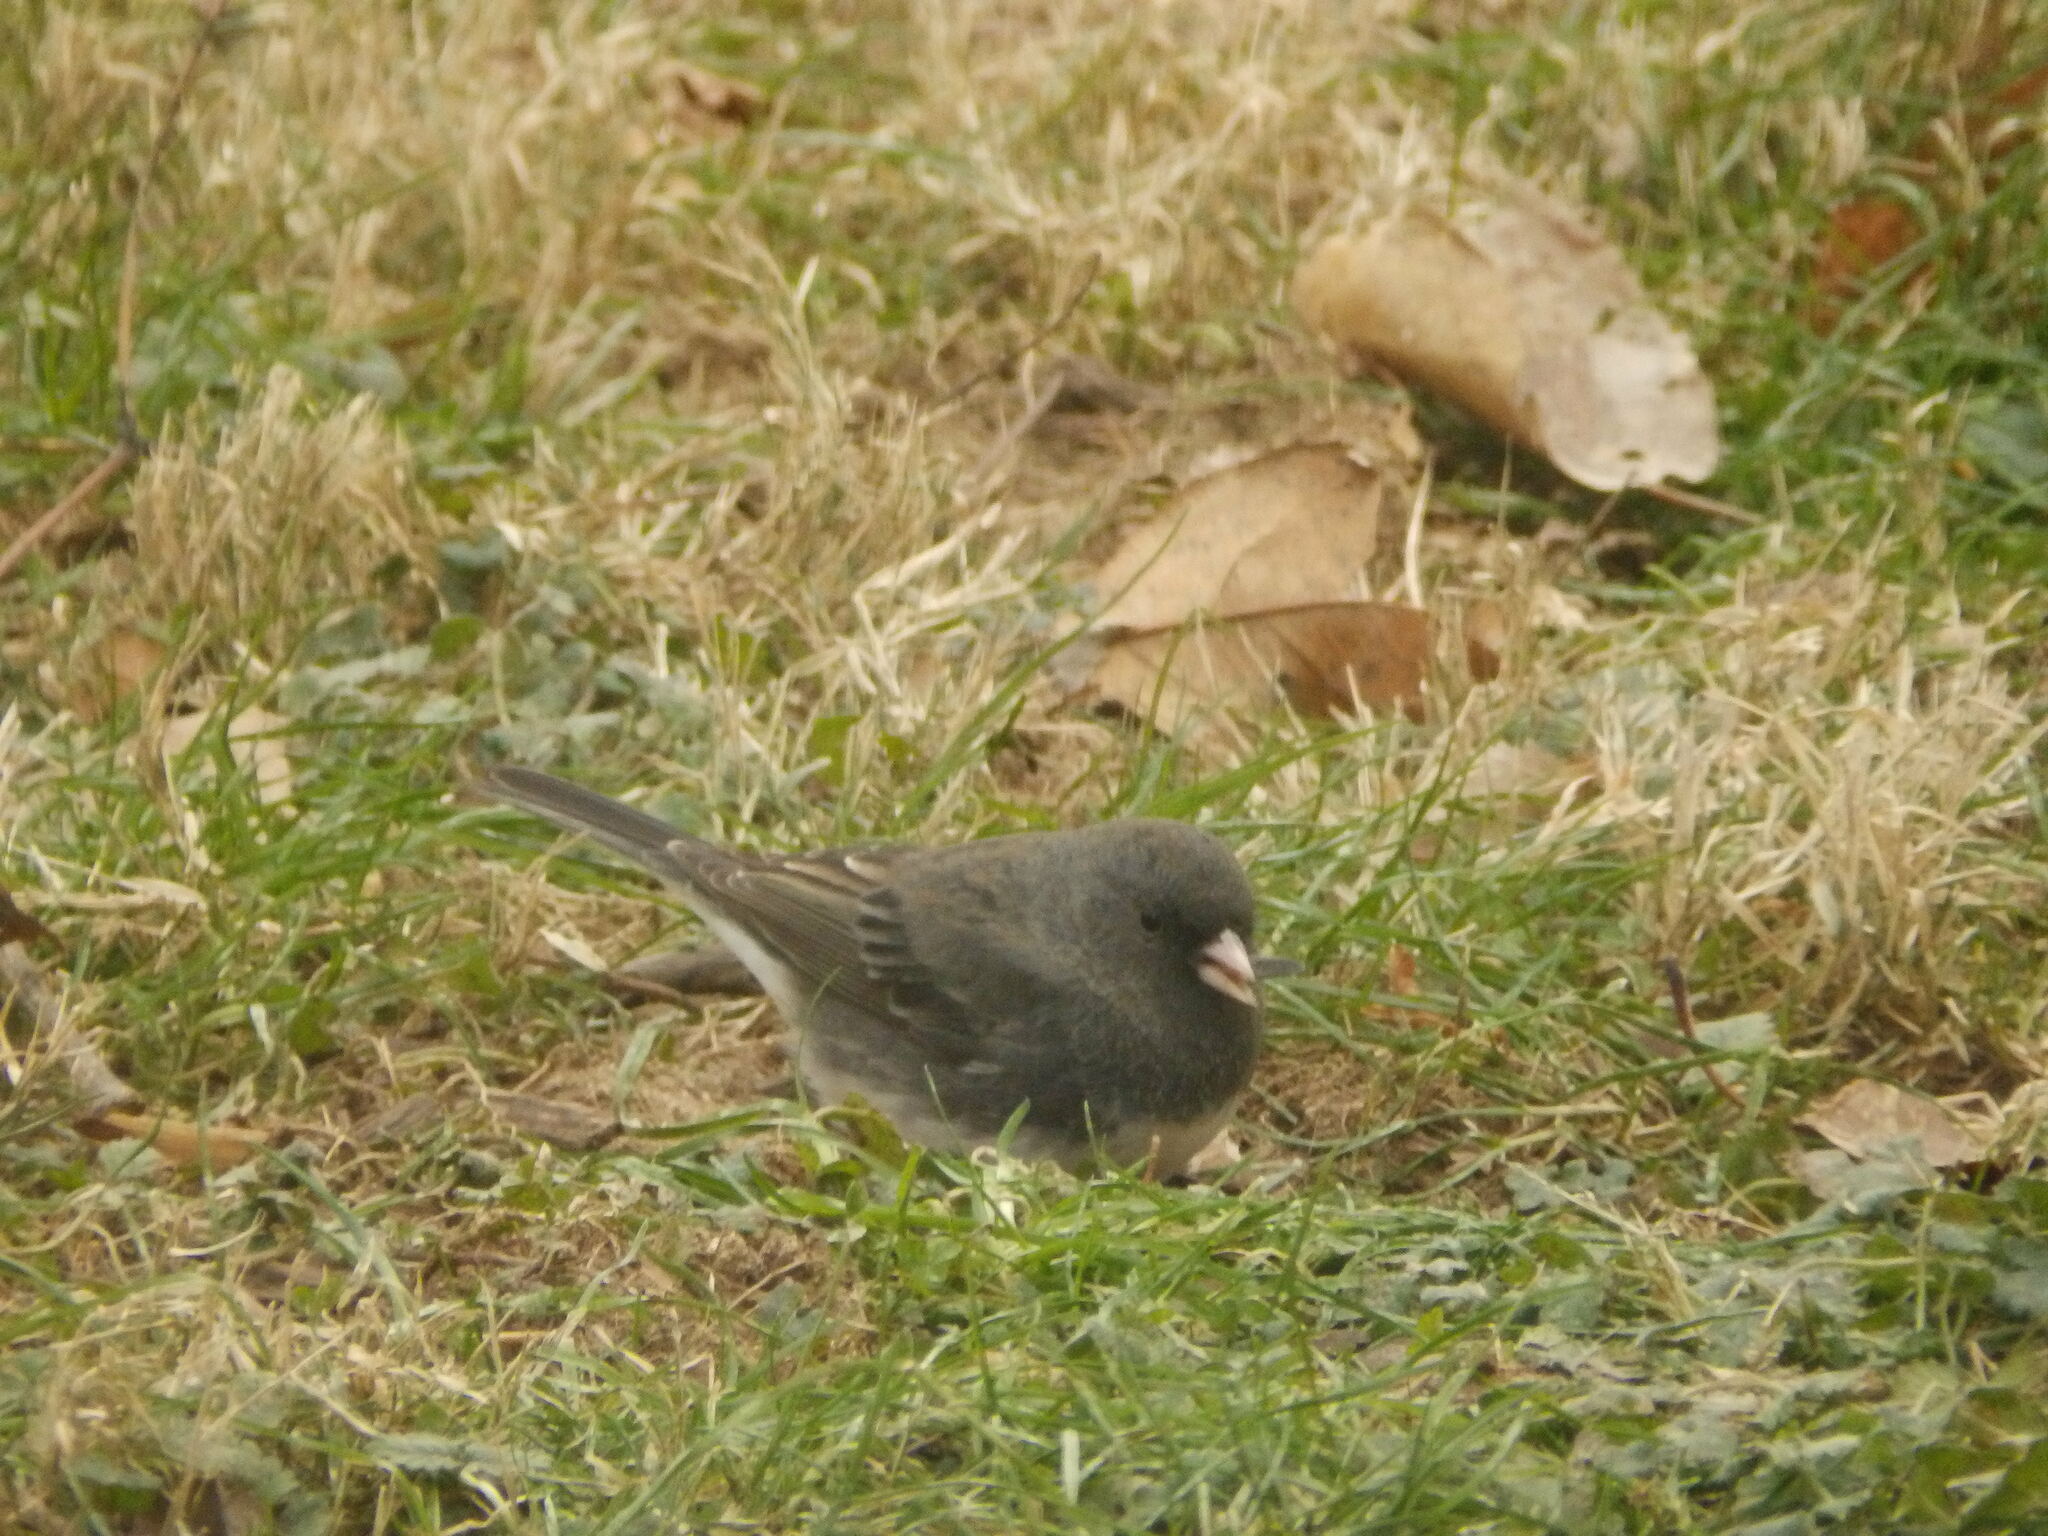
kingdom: Animalia
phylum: Chordata
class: Aves
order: Passeriformes
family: Passerellidae
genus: Junco
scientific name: Junco hyemalis
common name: Dark-eyed junco
